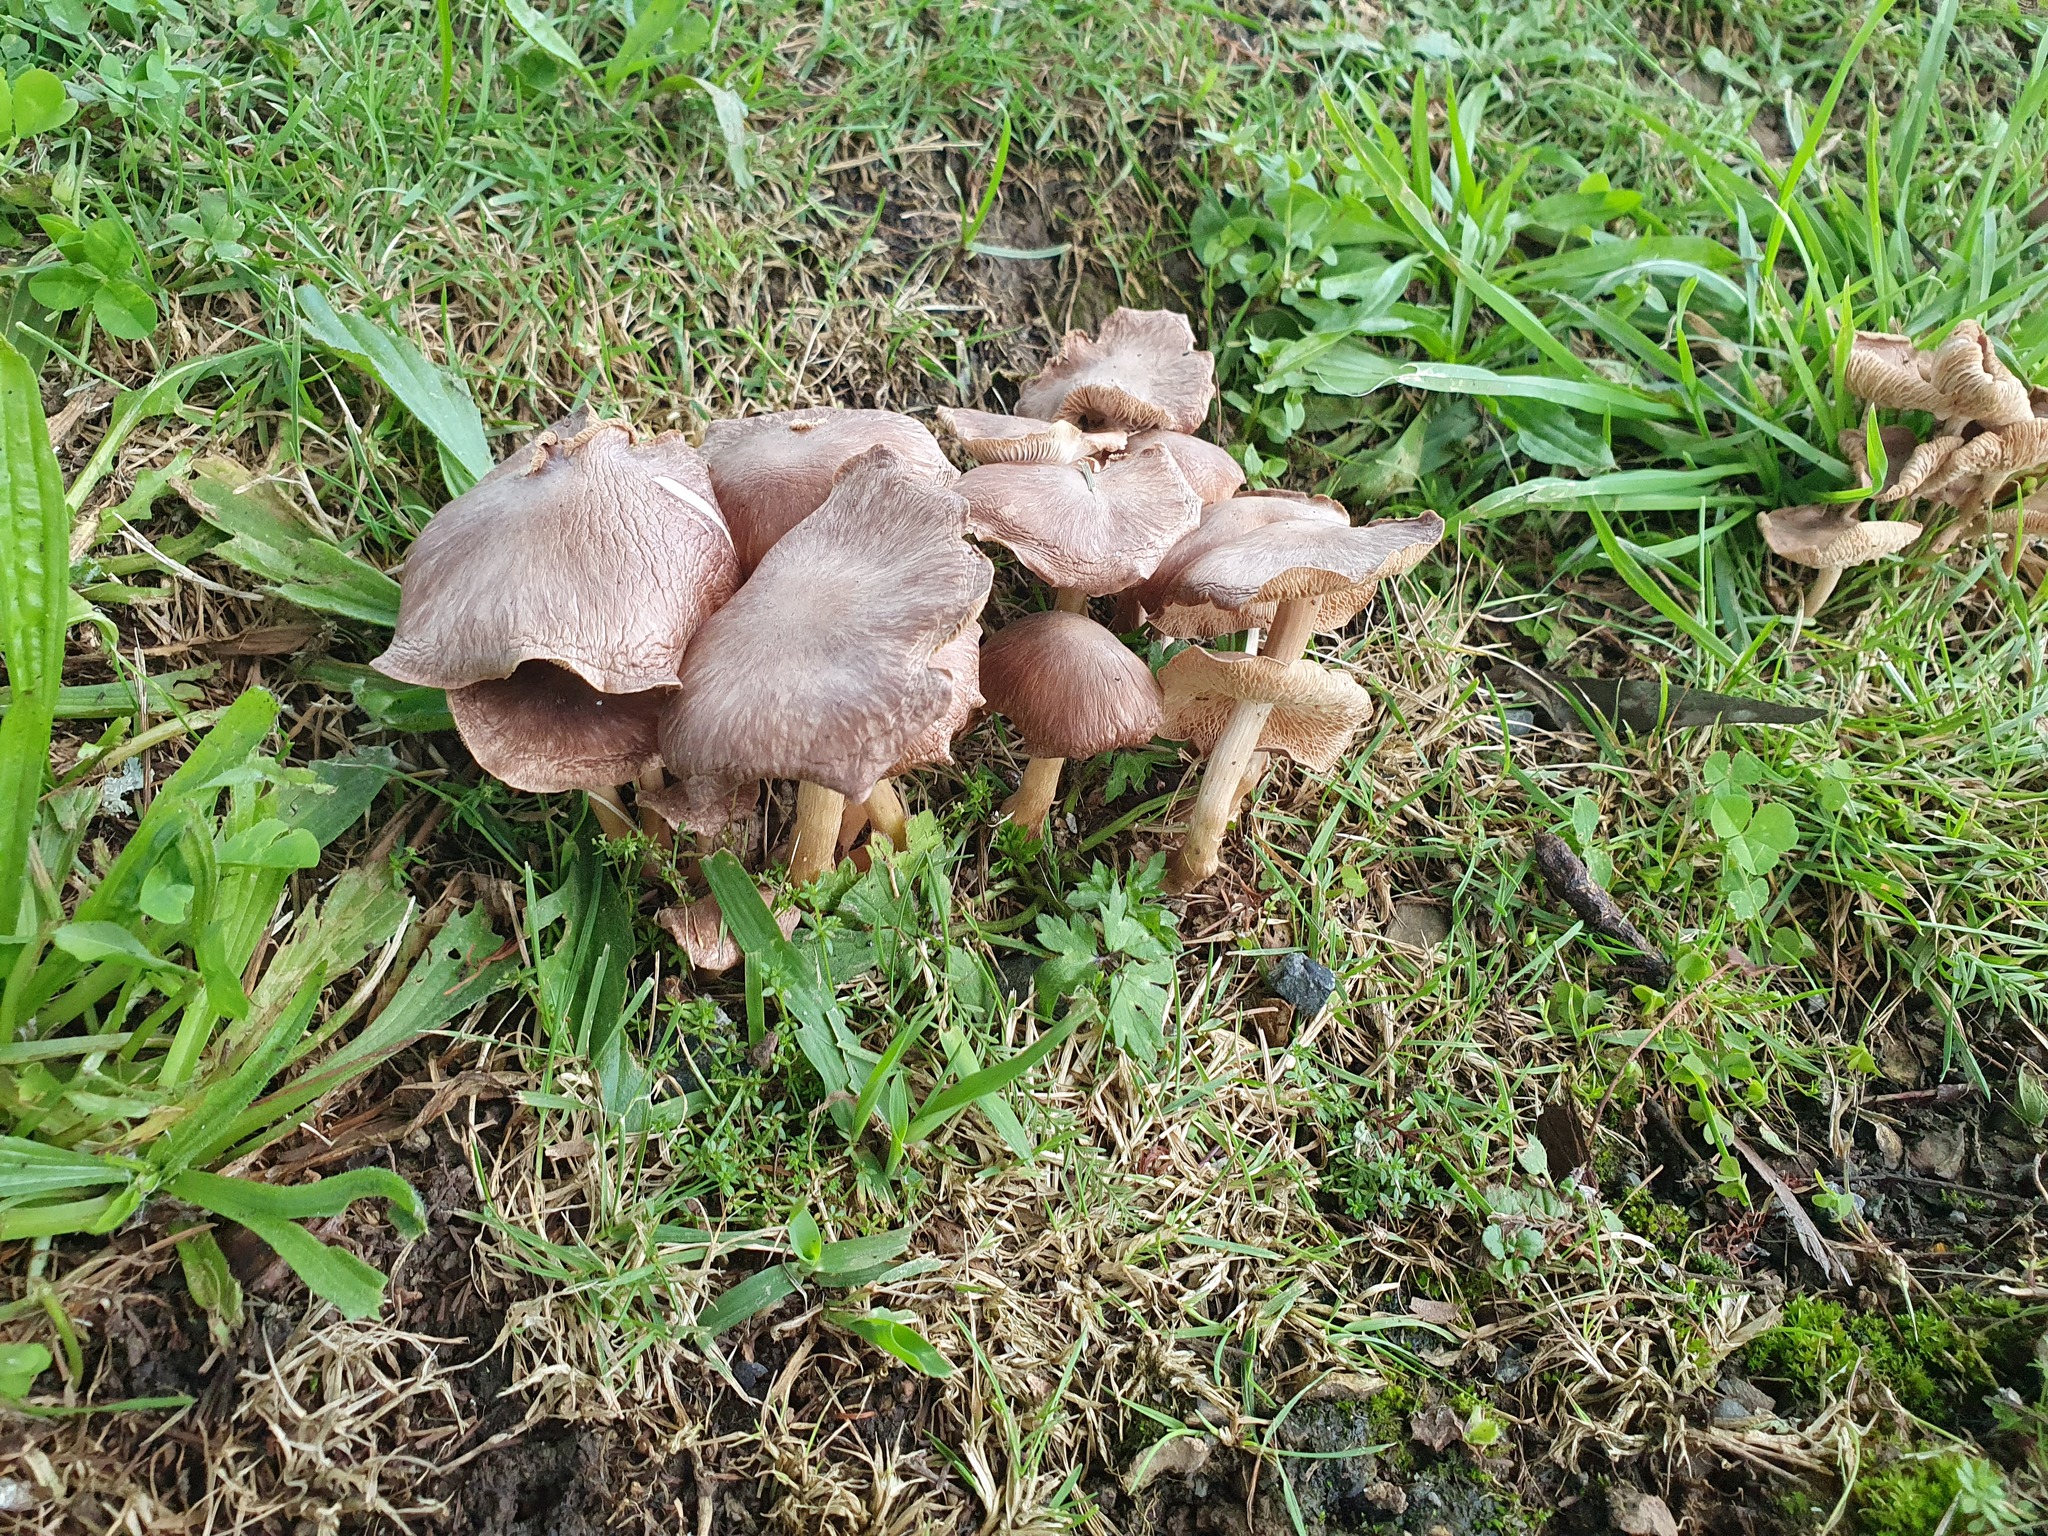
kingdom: Fungi
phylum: Basidiomycota
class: Agaricomycetes
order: Agaricales
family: Omphalotaceae
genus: Collybiopsis
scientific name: Collybiopsis luxurians
